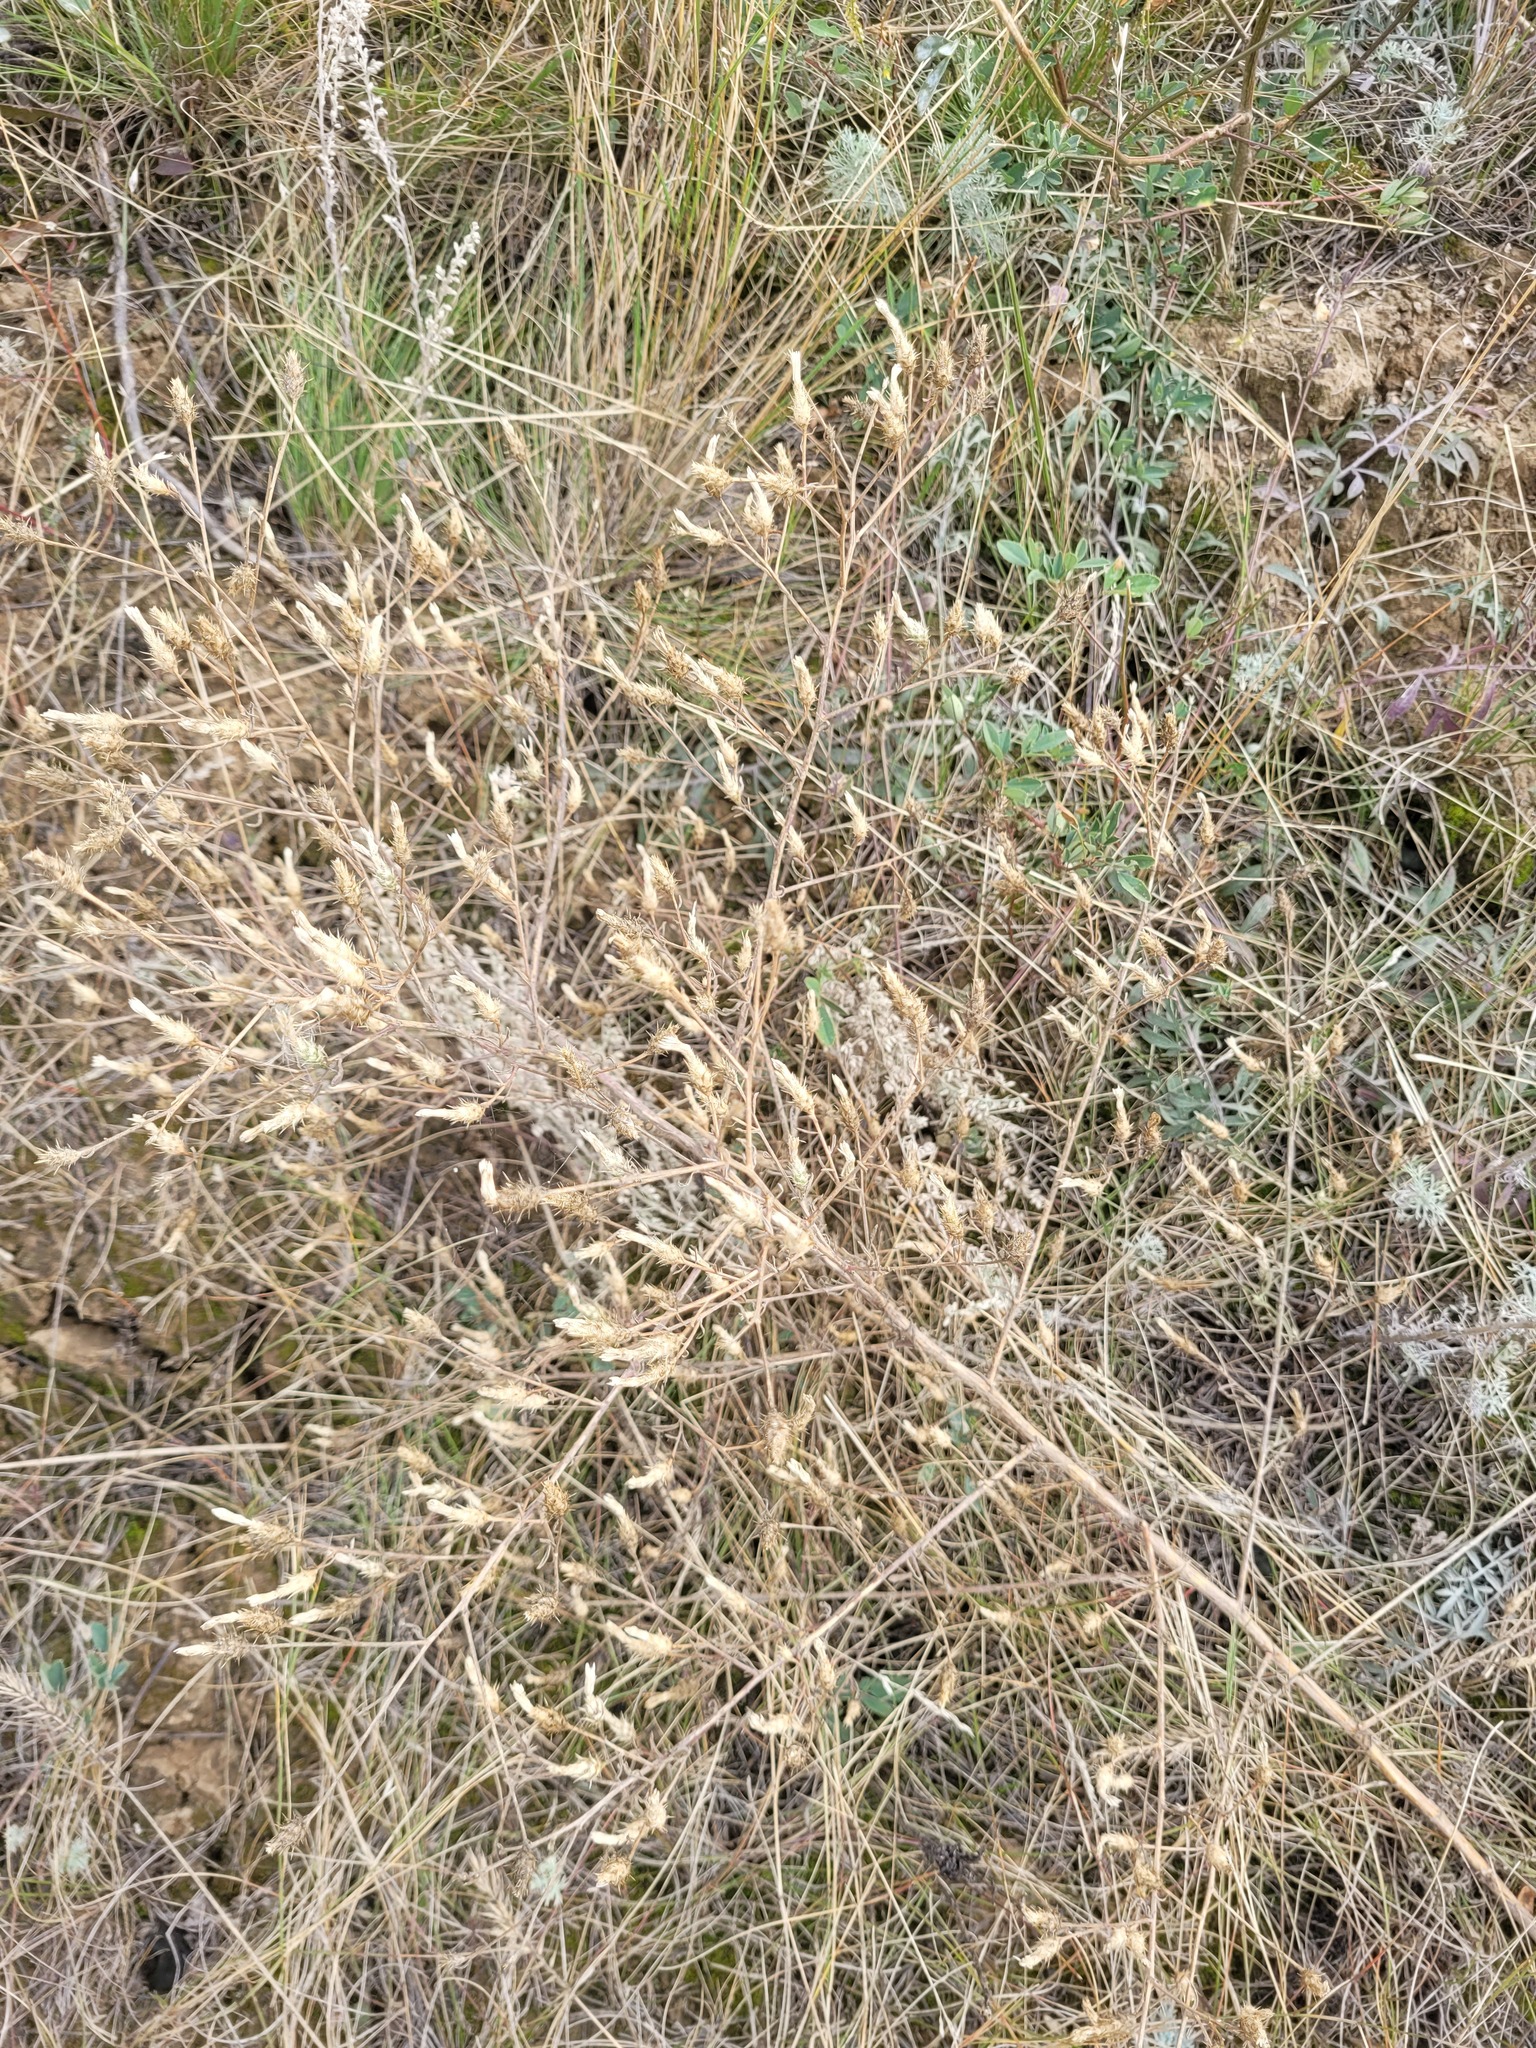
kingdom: Plantae
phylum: Tracheophyta
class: Magnoliopsida
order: Asterales
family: Asteraceae
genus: Centaurea
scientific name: Centaurea diffusa
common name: Diffuse knapweed
